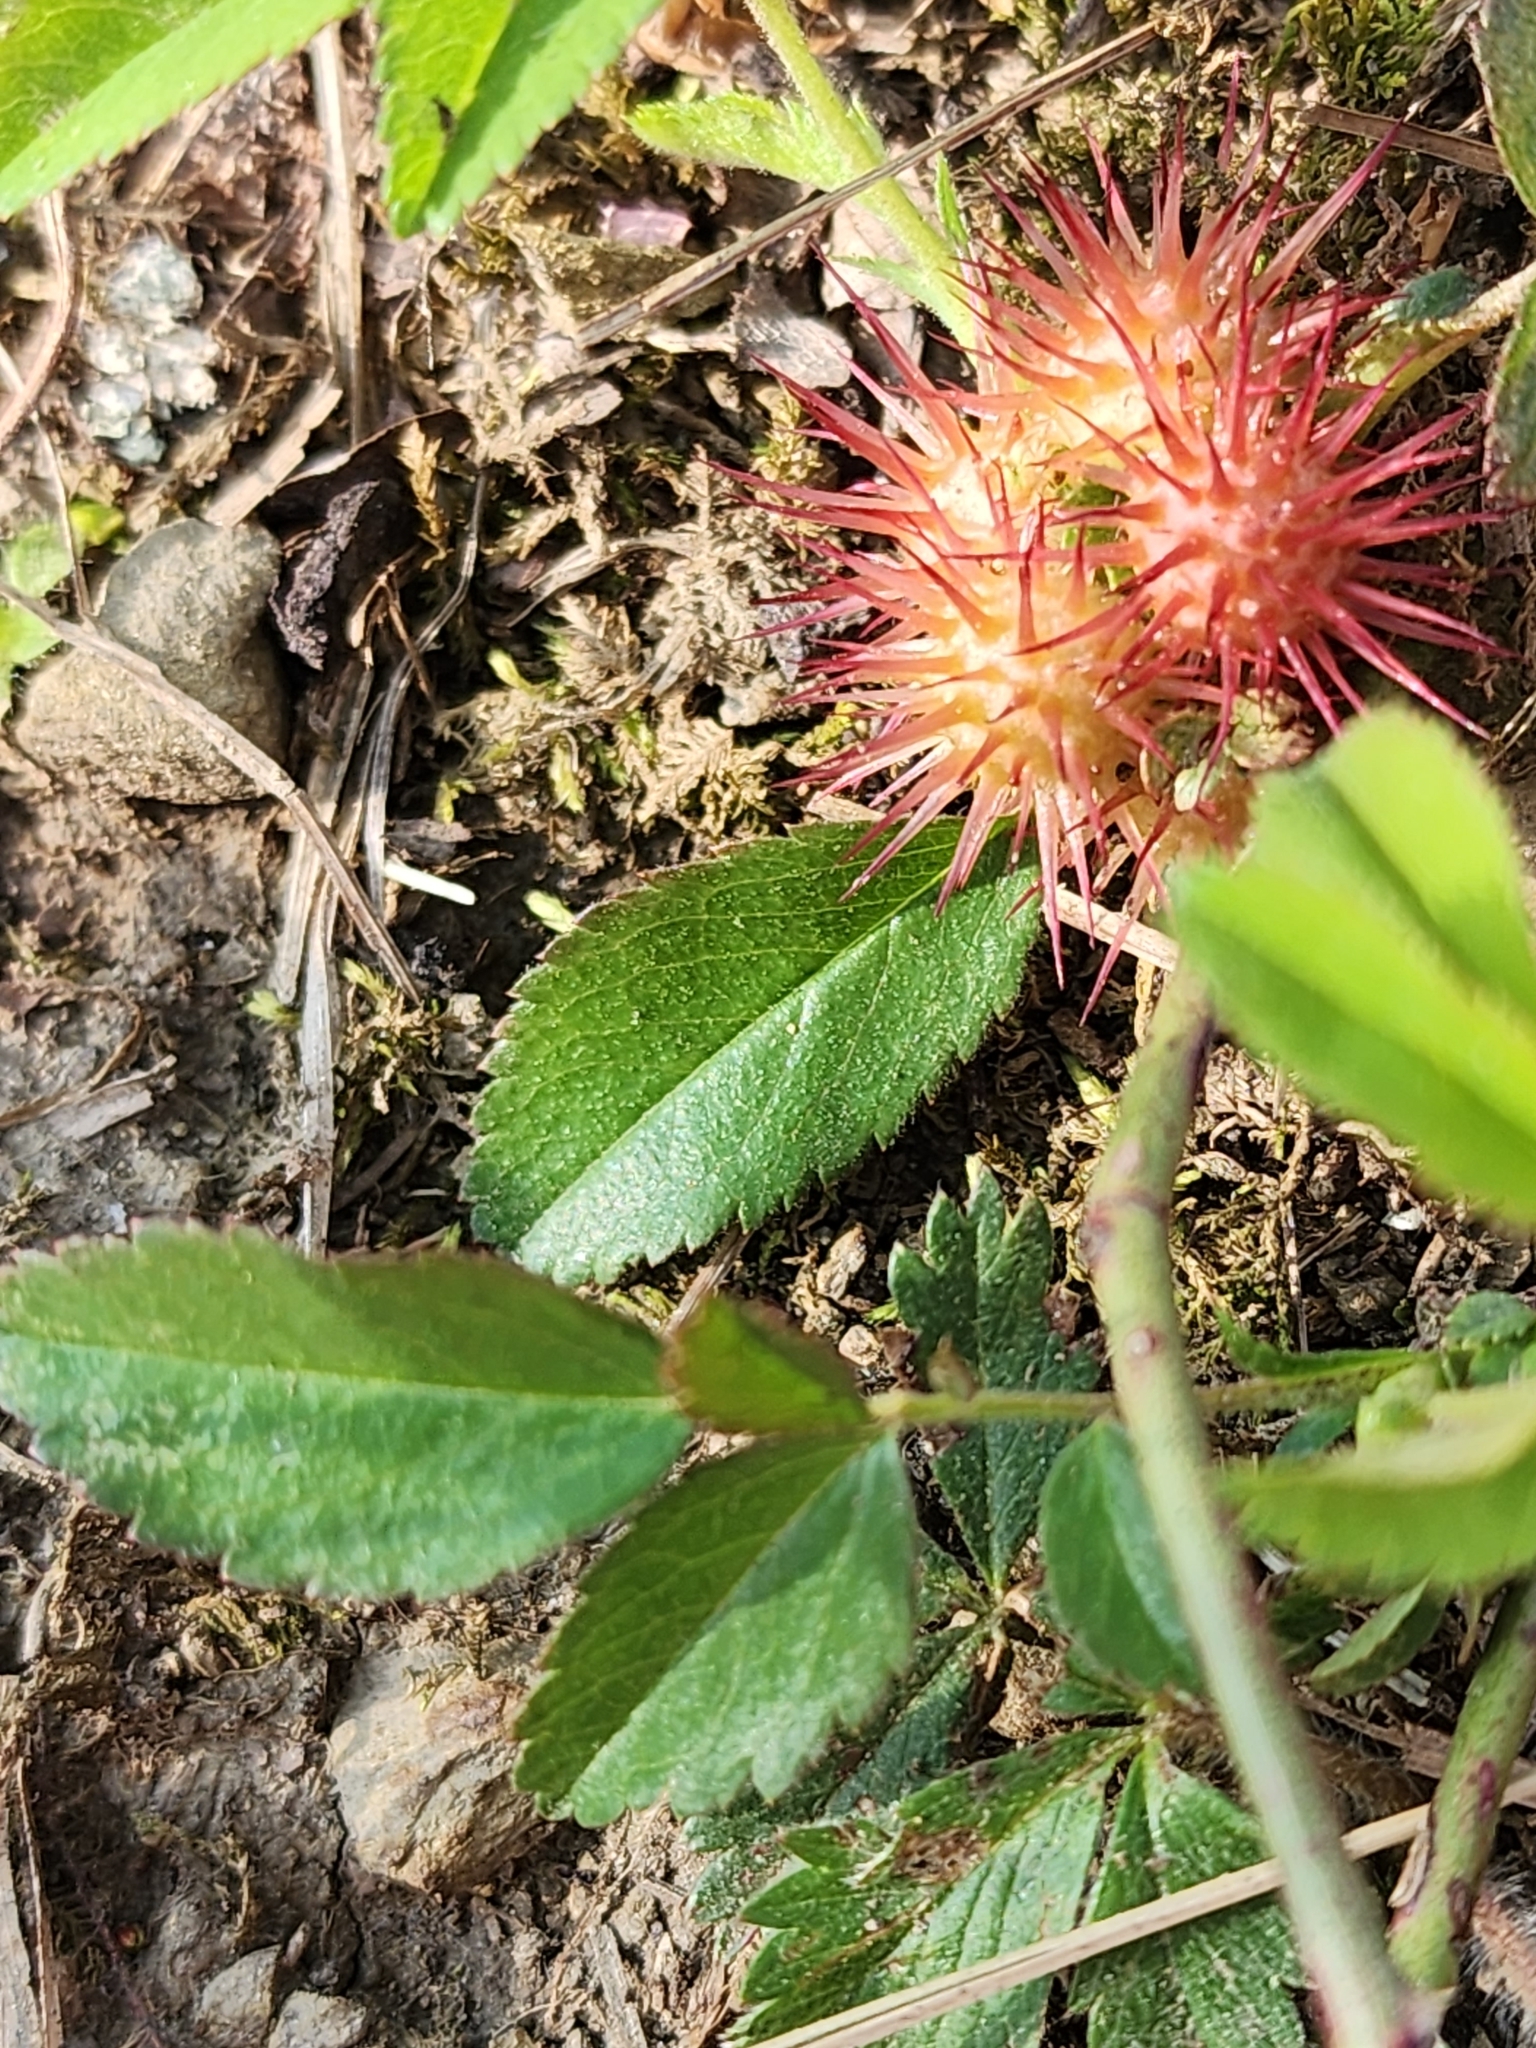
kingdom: Animalia
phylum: Arthropoda
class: Insecta
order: Hymenoptera
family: Cynipidae
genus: Diplolepis
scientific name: Diplolepis bicolor
